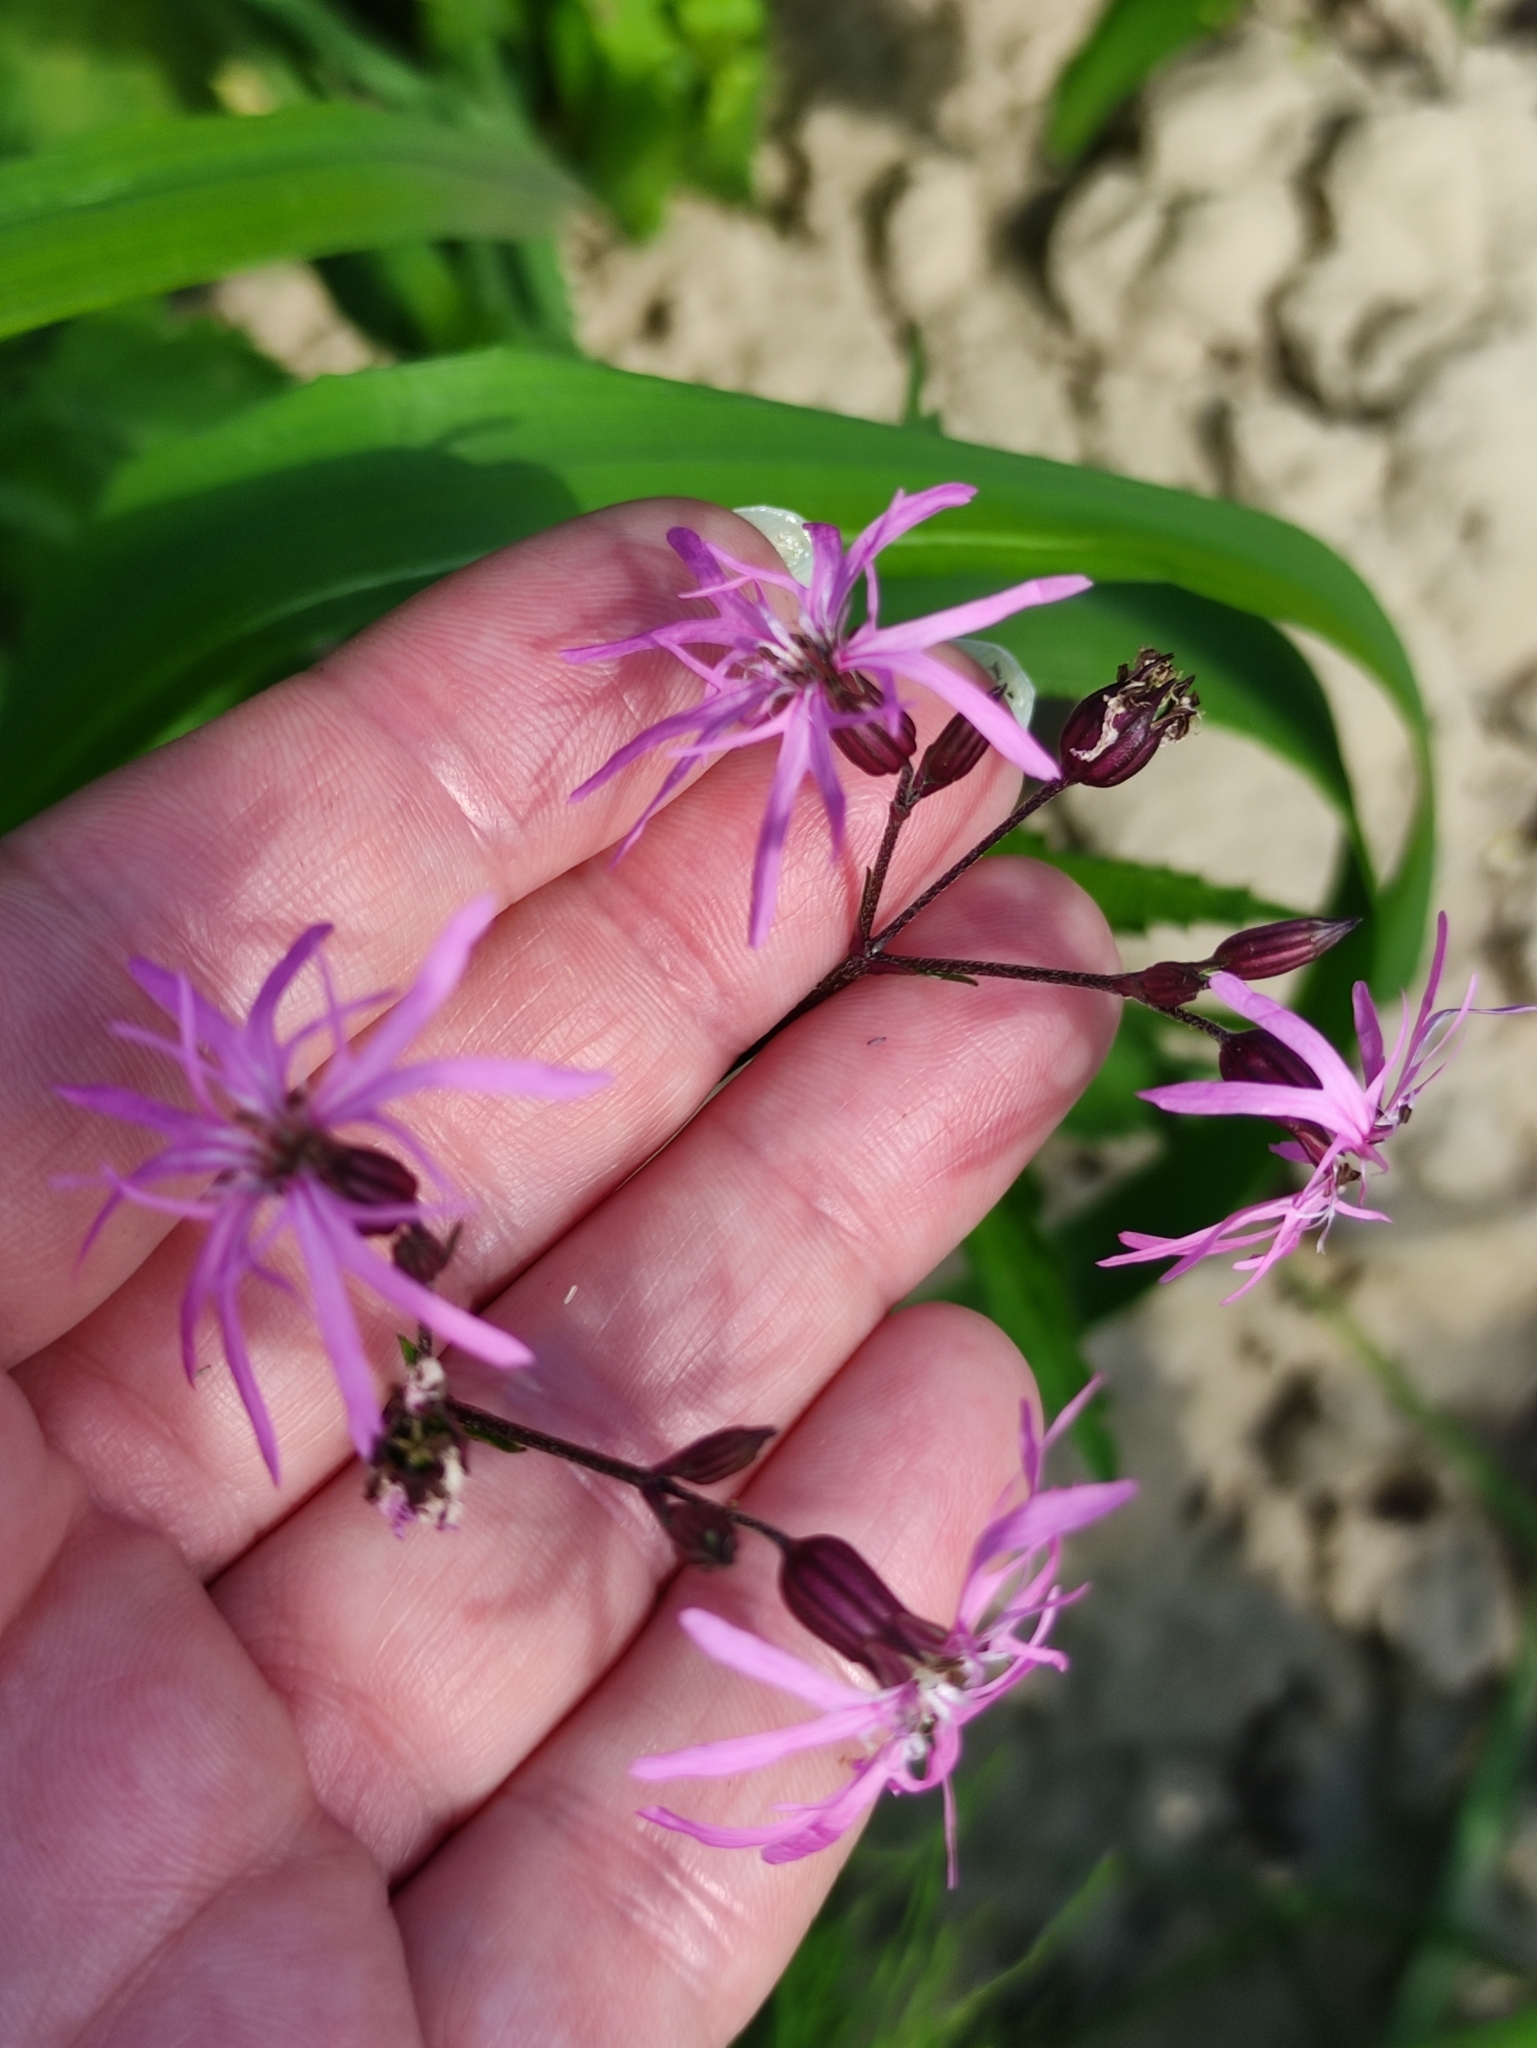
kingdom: Plantae
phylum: Tracheophyta
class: Magnoliopsida
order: Caryophyllales
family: Caryophyllaceae
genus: Silene
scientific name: Silene flos-cuculi
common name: Ragged-robin
